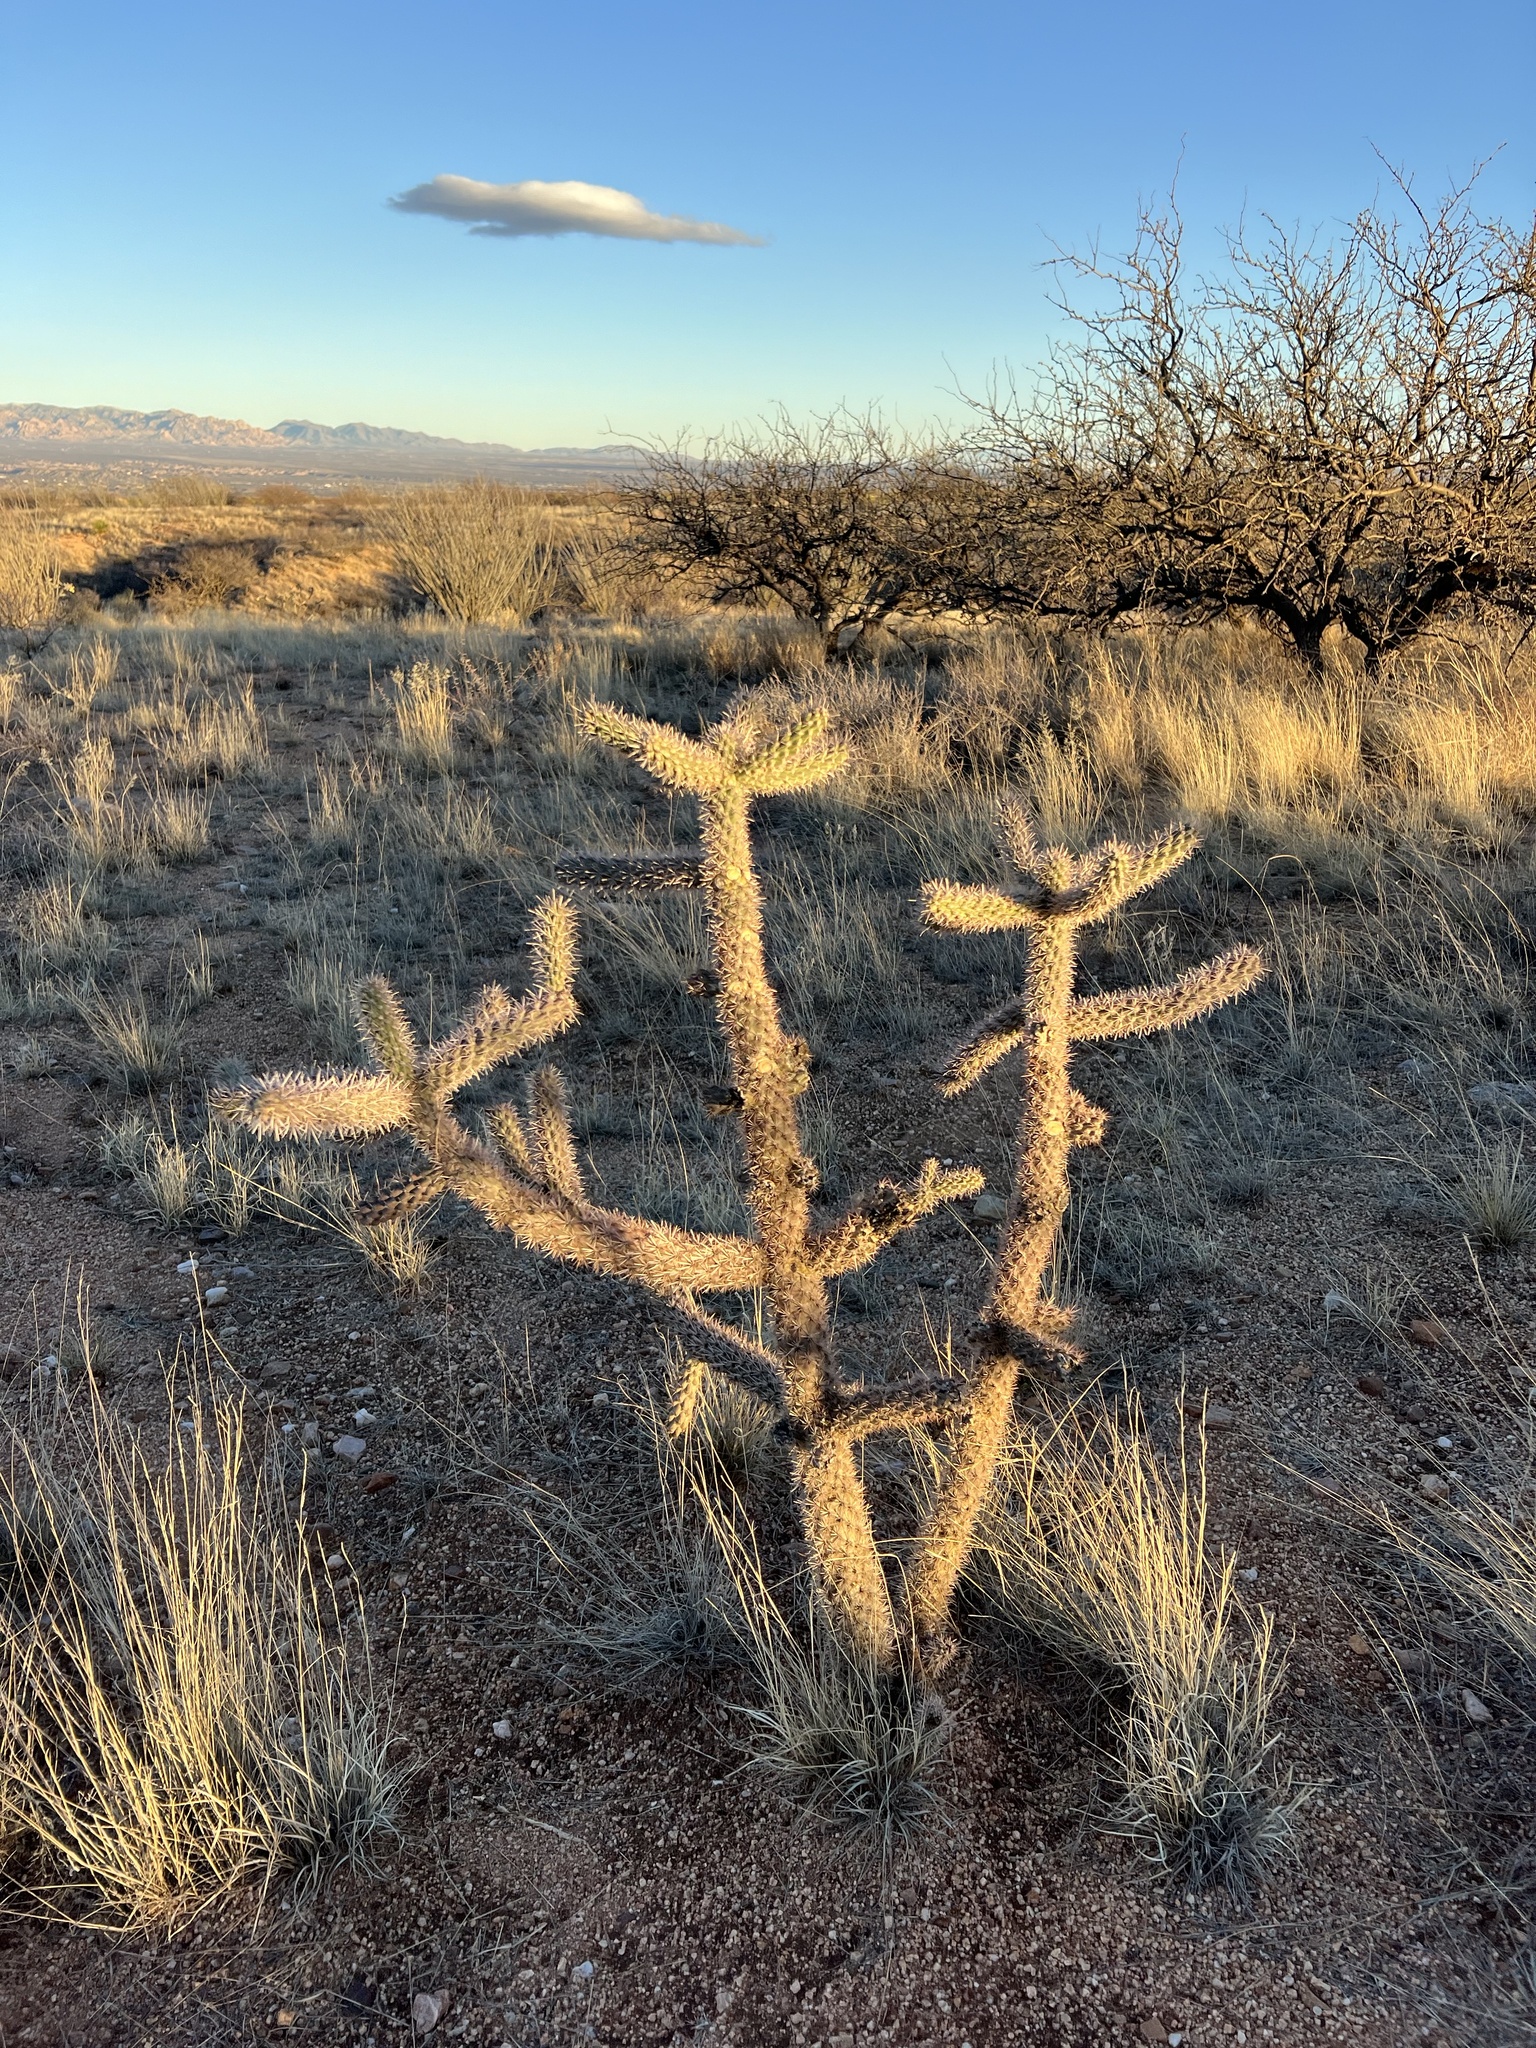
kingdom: Plantae
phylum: Tracheophyta
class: Magnoliopsida
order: Caryophyllales
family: Cactaceae
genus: Cylindropuntia
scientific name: Cylindropuntia imbricata
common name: Candelabrum cactus
